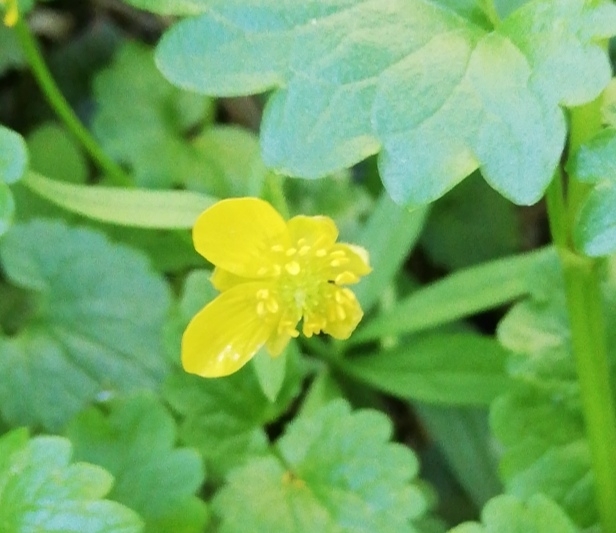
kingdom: Plantae
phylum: Tracheophyta
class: Magnoliopsida
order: Ranunculales
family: Ranunculaceae
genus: Ranunculus
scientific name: Ranunculus monophyllus
